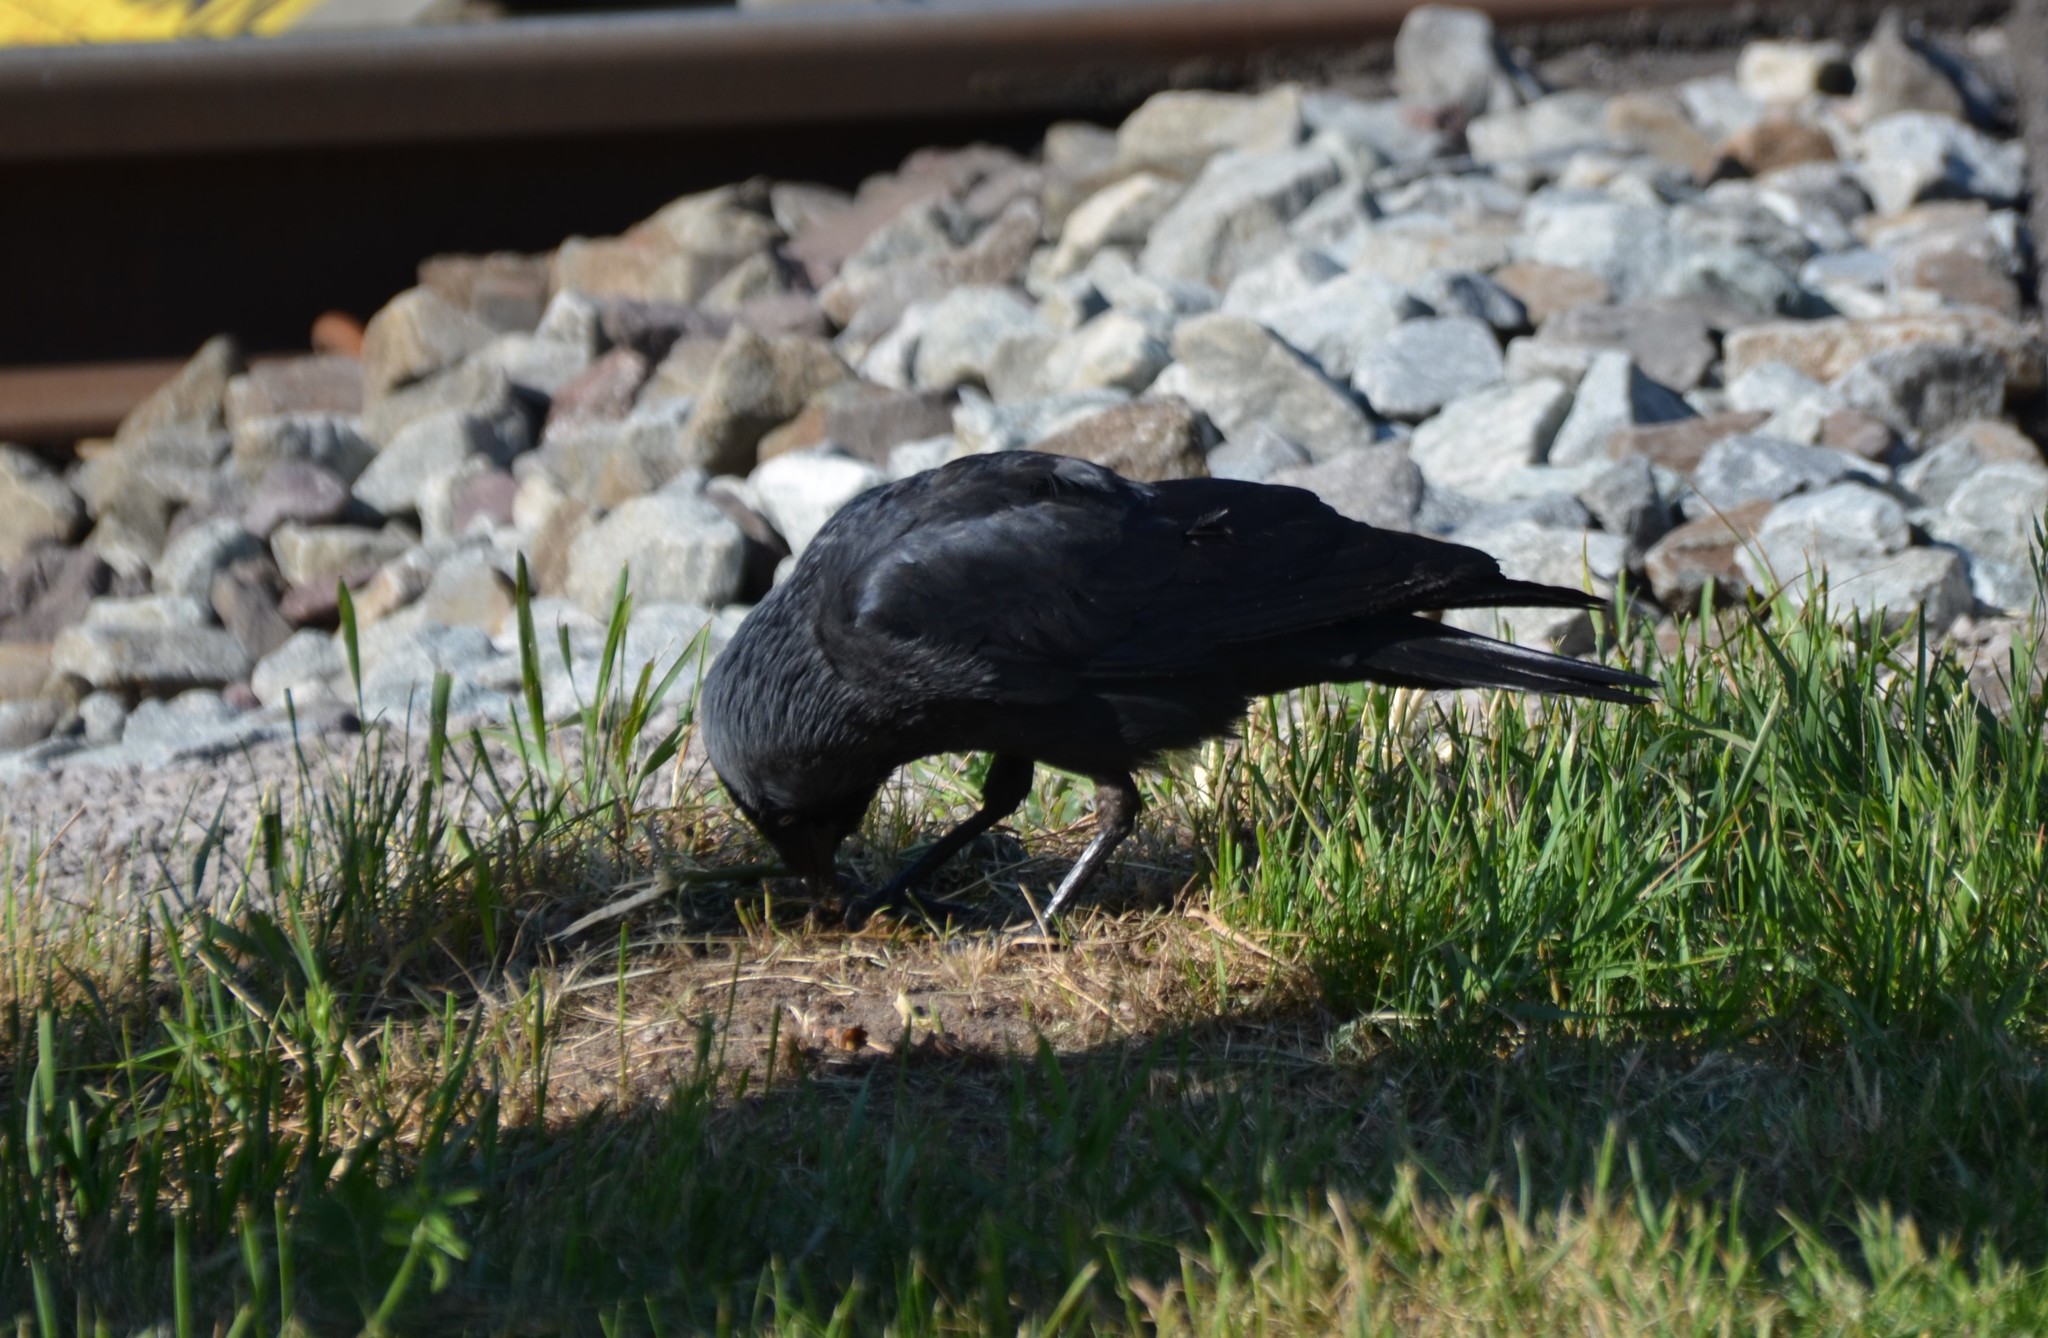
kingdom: Animalia
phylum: Chordata
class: Aves
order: Passeriformes
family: Corvidae
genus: Coloeus
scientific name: Coloeus monedula
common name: Western jackdaw
